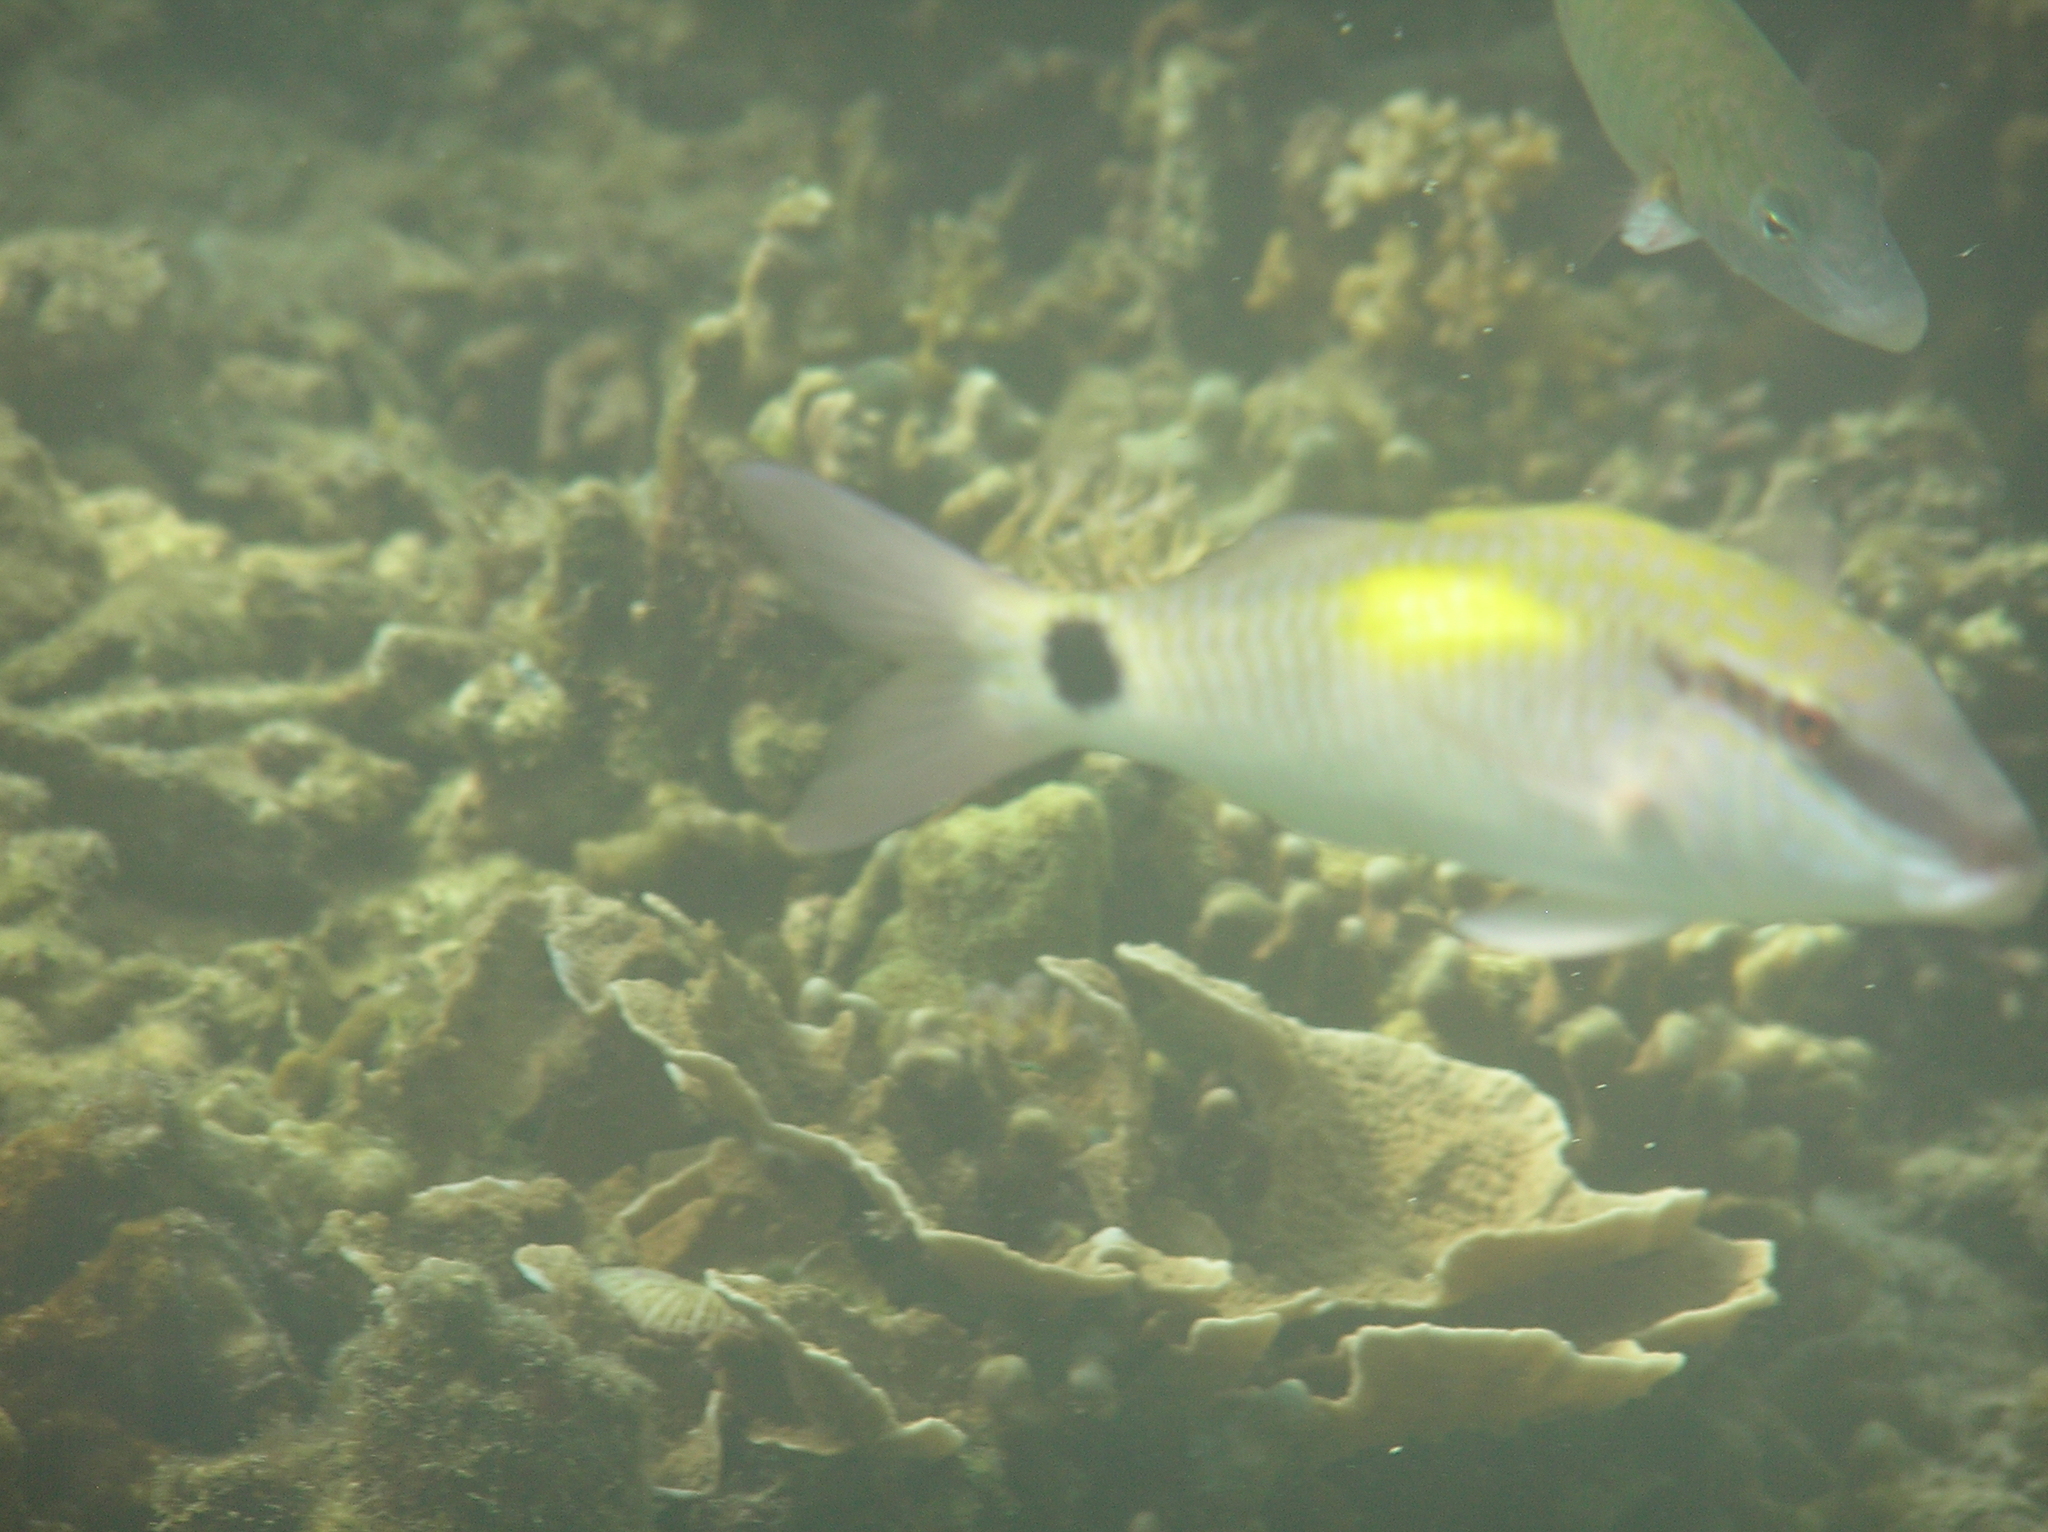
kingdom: Animalia
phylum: Chordata
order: Perciformes
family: Mullidae
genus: Parupeneus
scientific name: Parupeneus indicus
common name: Indian goatfish
